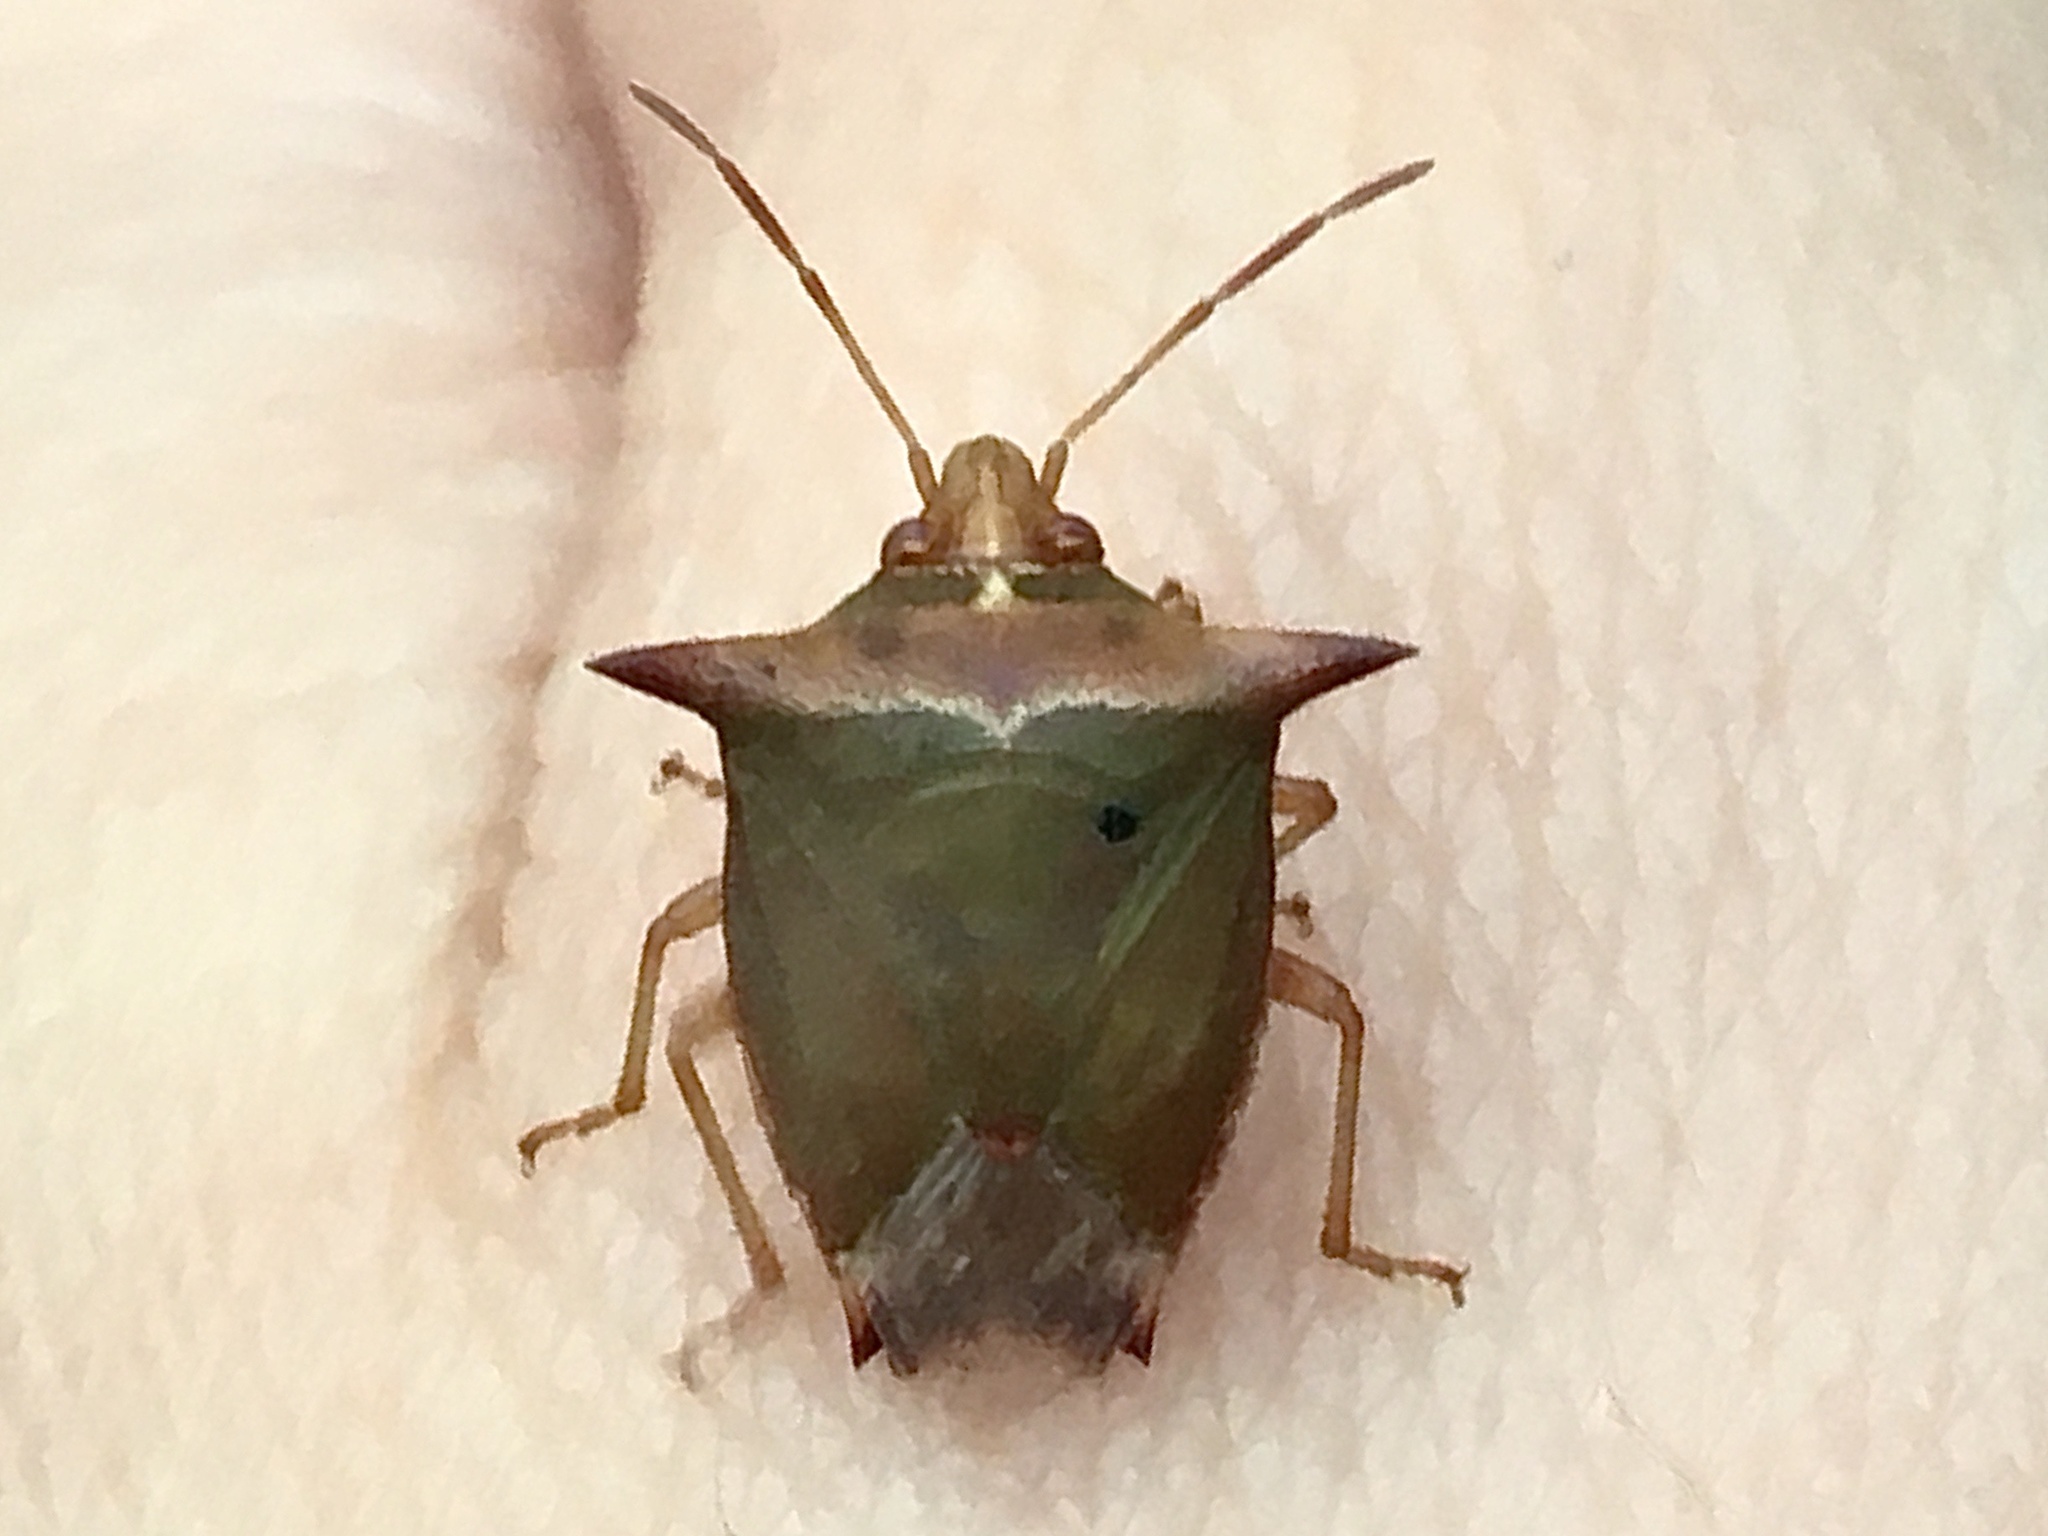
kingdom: Animalia
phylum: Arthropoda
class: Insecta
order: Hemiptera
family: Pentatomidae
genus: Avicenna
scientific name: Avicenna aggressor
